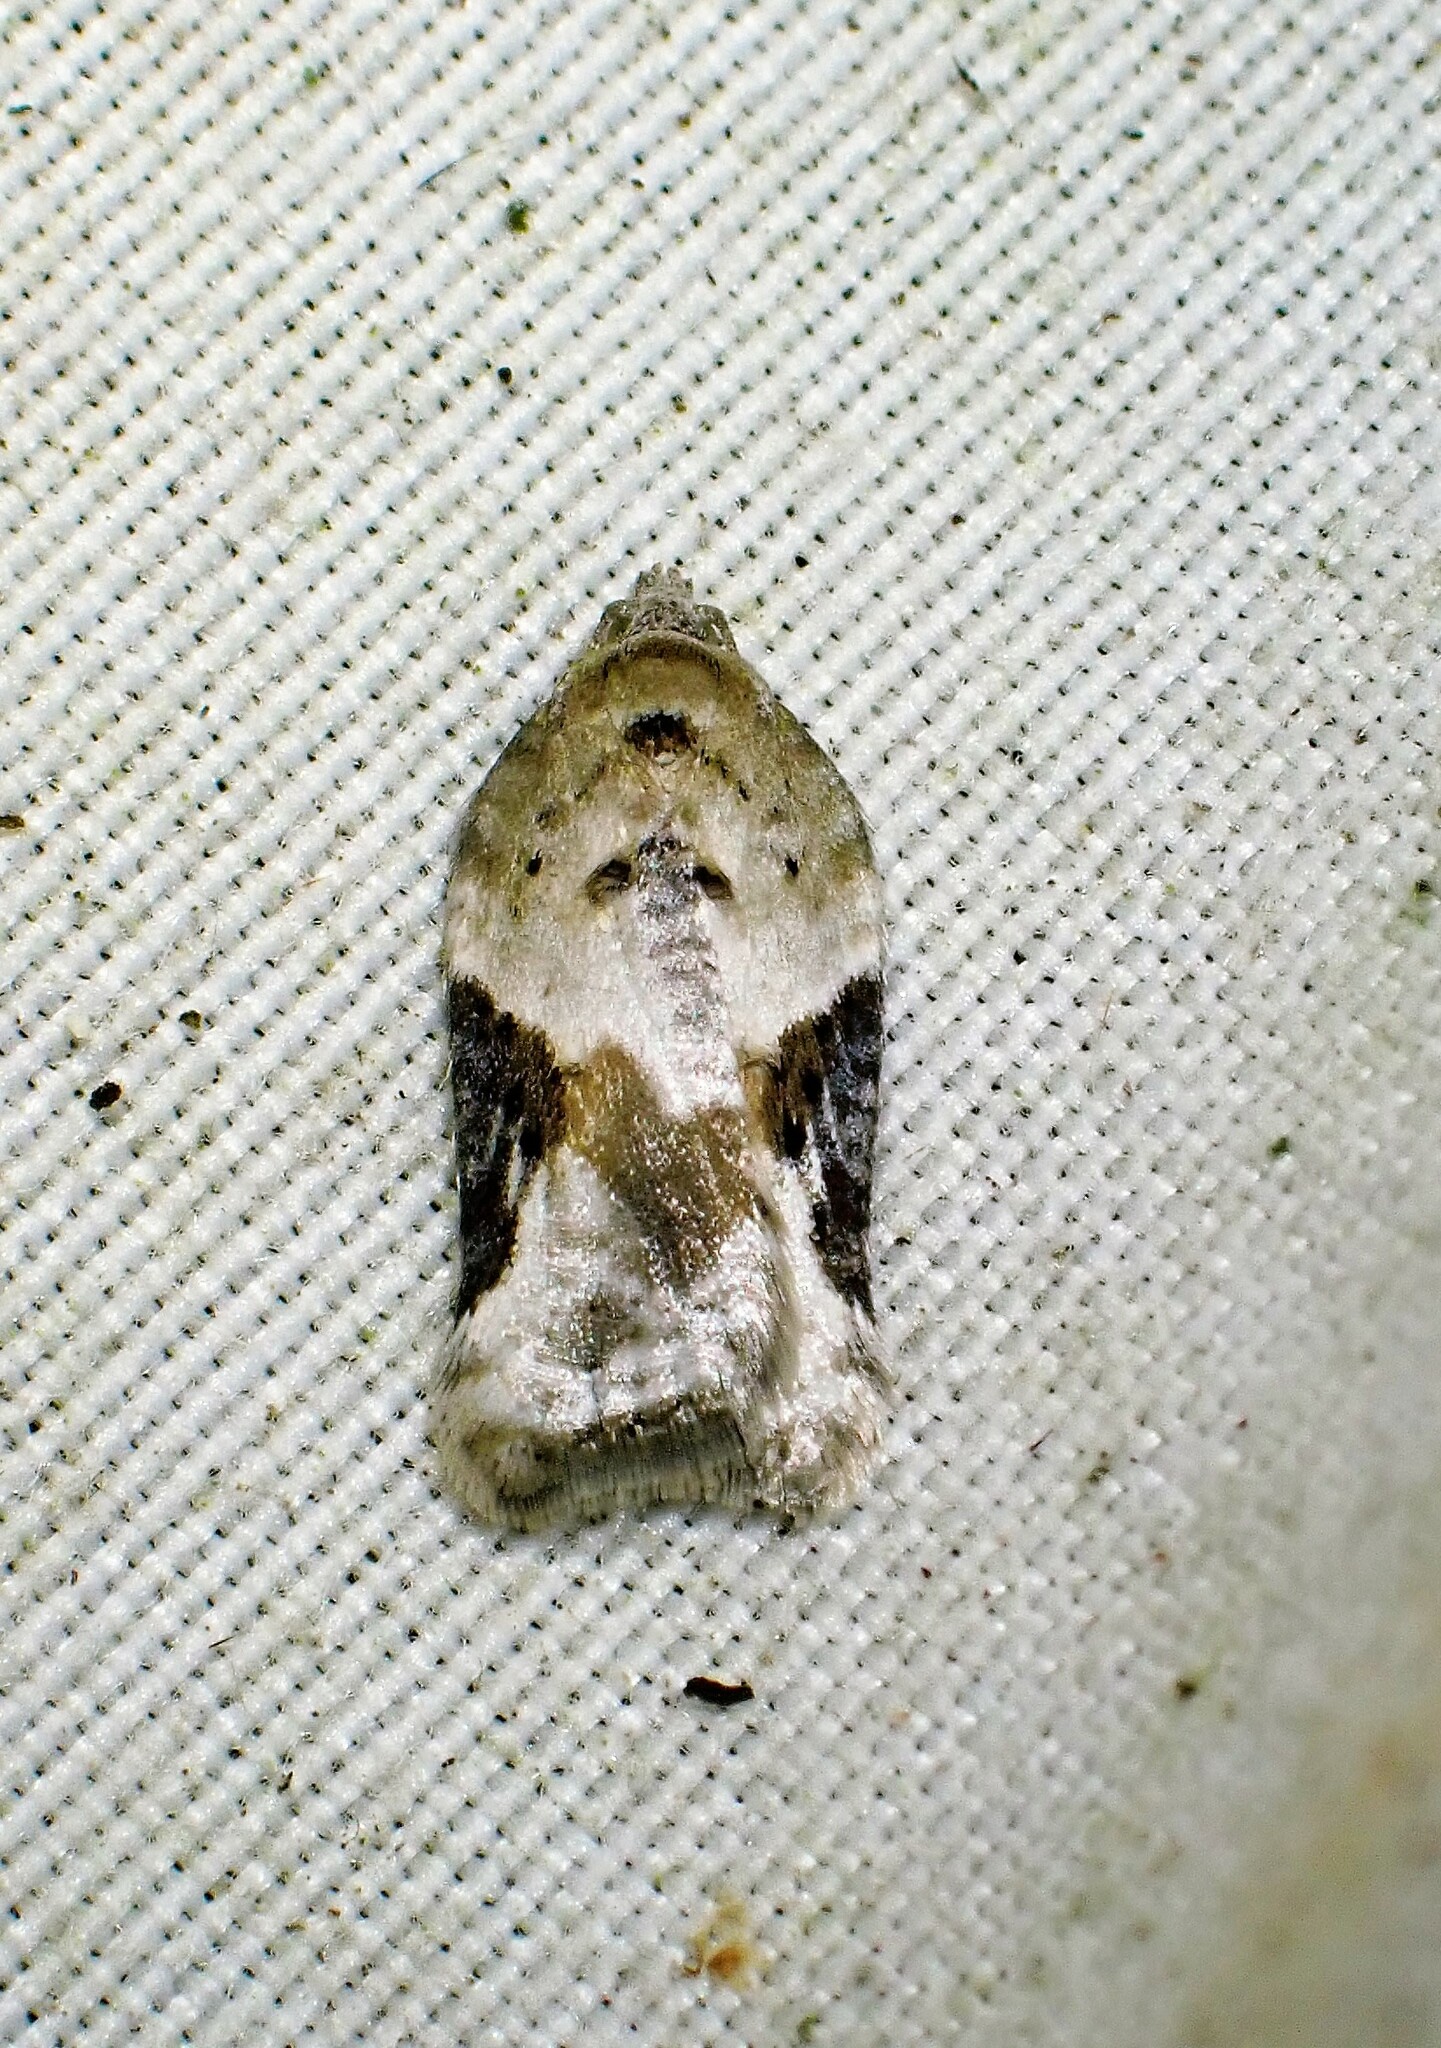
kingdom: Animalia
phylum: Arthropoda
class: Insecta
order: Lepidoptera
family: Tortricidae
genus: Acleris
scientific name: Acleris forbesana
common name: Forbes' acleris moth
